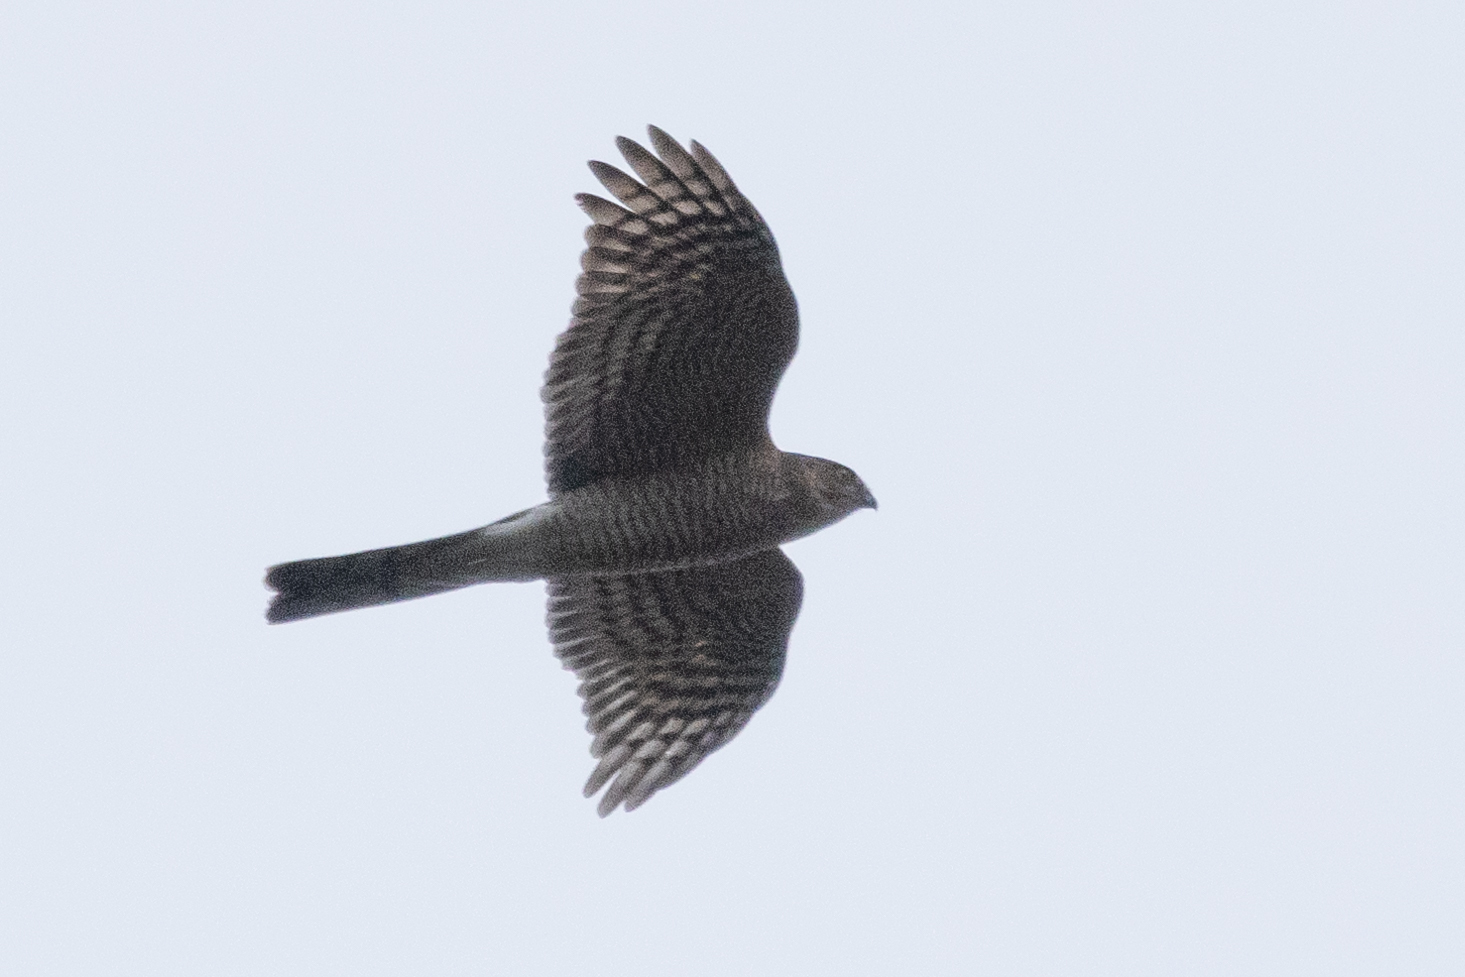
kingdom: Animalia
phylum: Chordata
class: Aves
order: Accipitriformes
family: Accipitridae
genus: Accipiter
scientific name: Accipiter nisus
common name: Eurasian sparrowhawk
